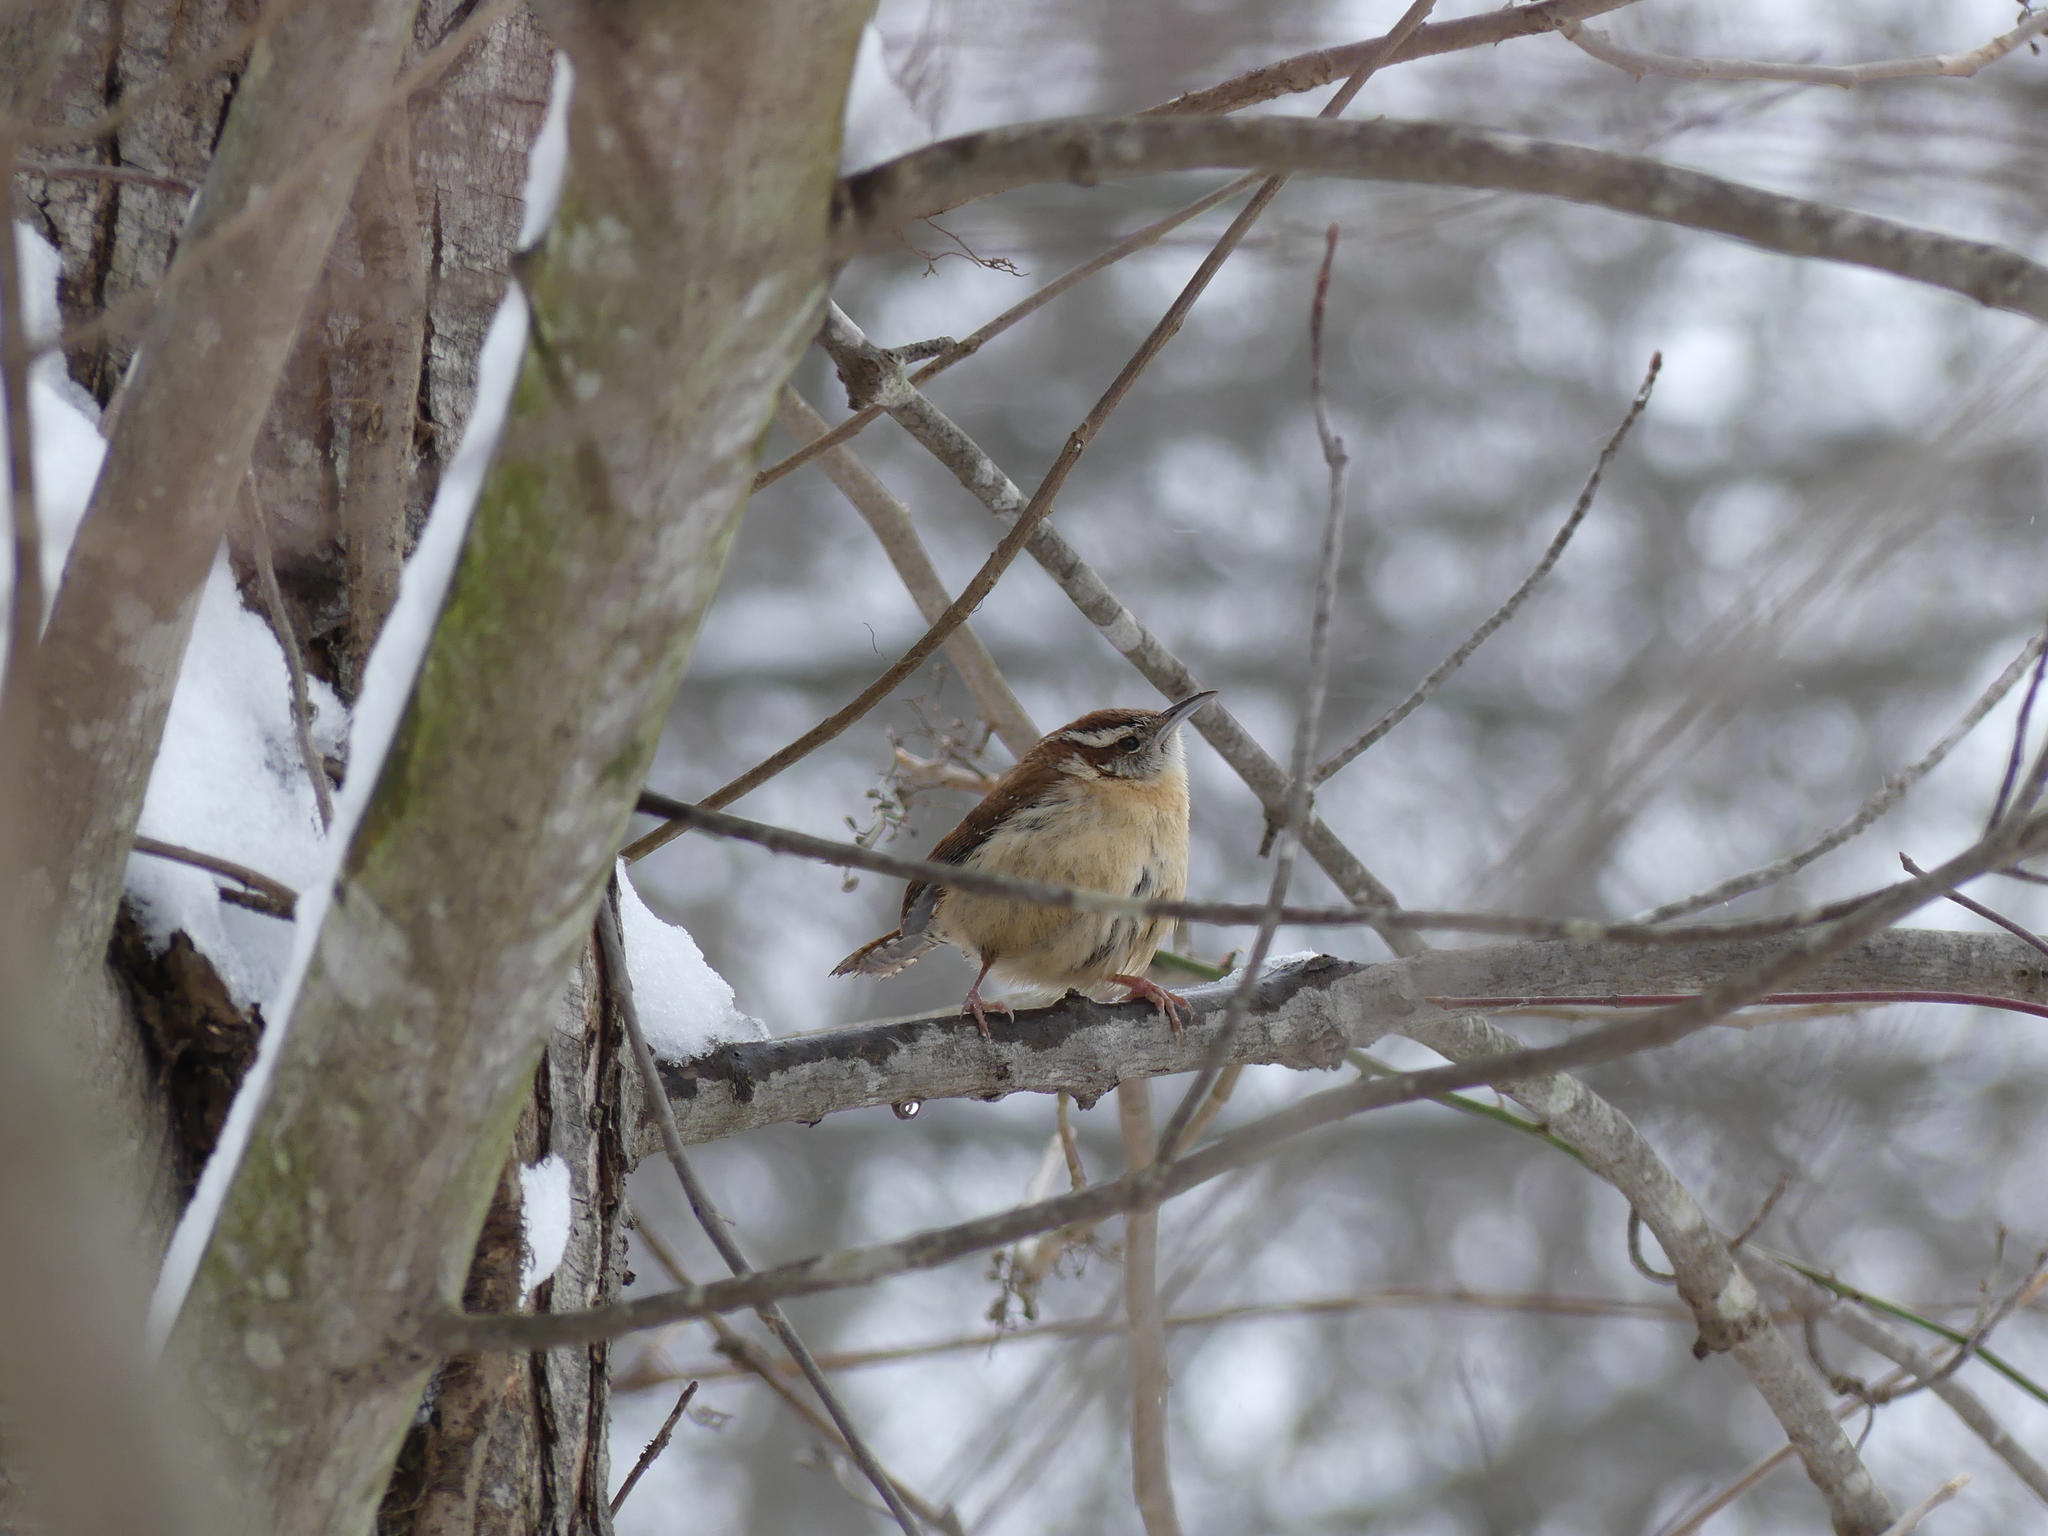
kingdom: Animalia
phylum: Chordata
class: Aves
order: Passeriformes
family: Troglodytidae
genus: Thryothorus
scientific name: Thryothorus ludovicianus
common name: Carolina wren
